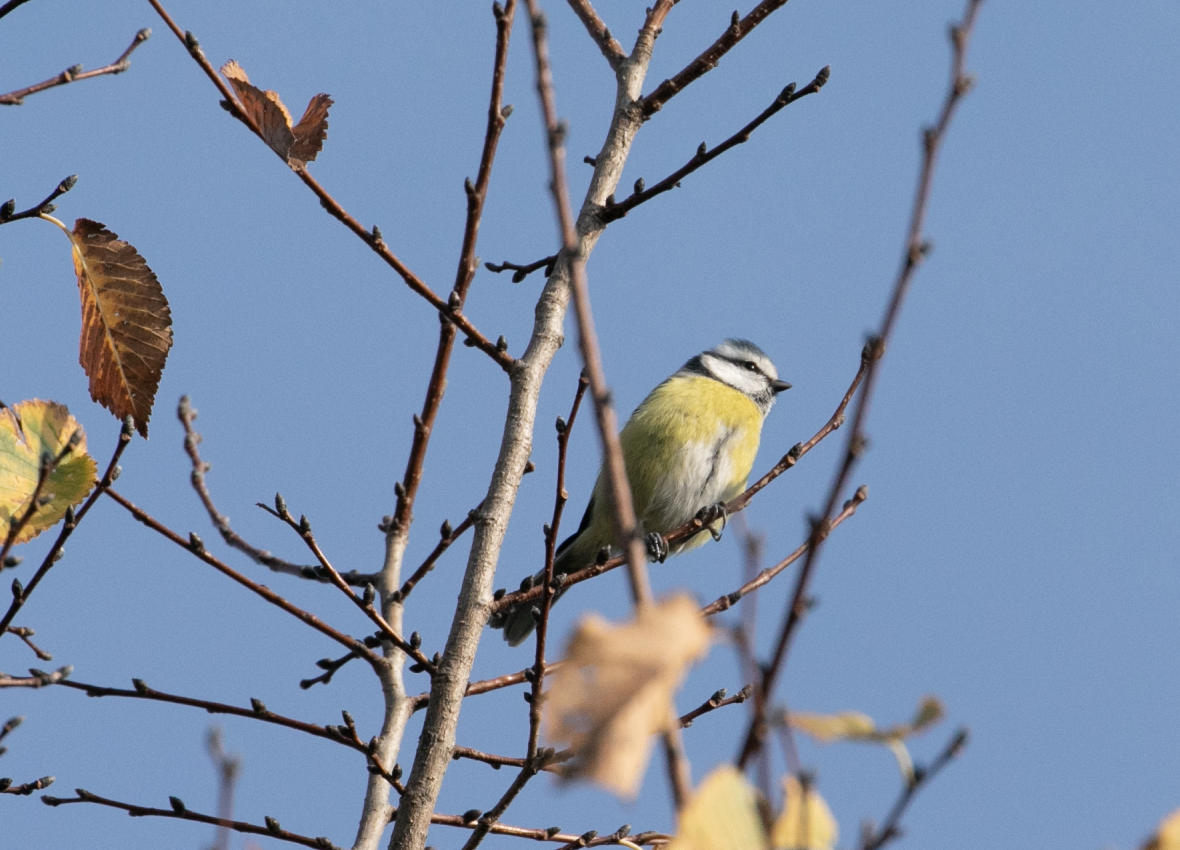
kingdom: Animalia
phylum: Chordata
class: Aves
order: Passeriformes
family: Paridae
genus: Cyanistes
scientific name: Cyanistes caeruleus
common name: Eurasian blue tit
